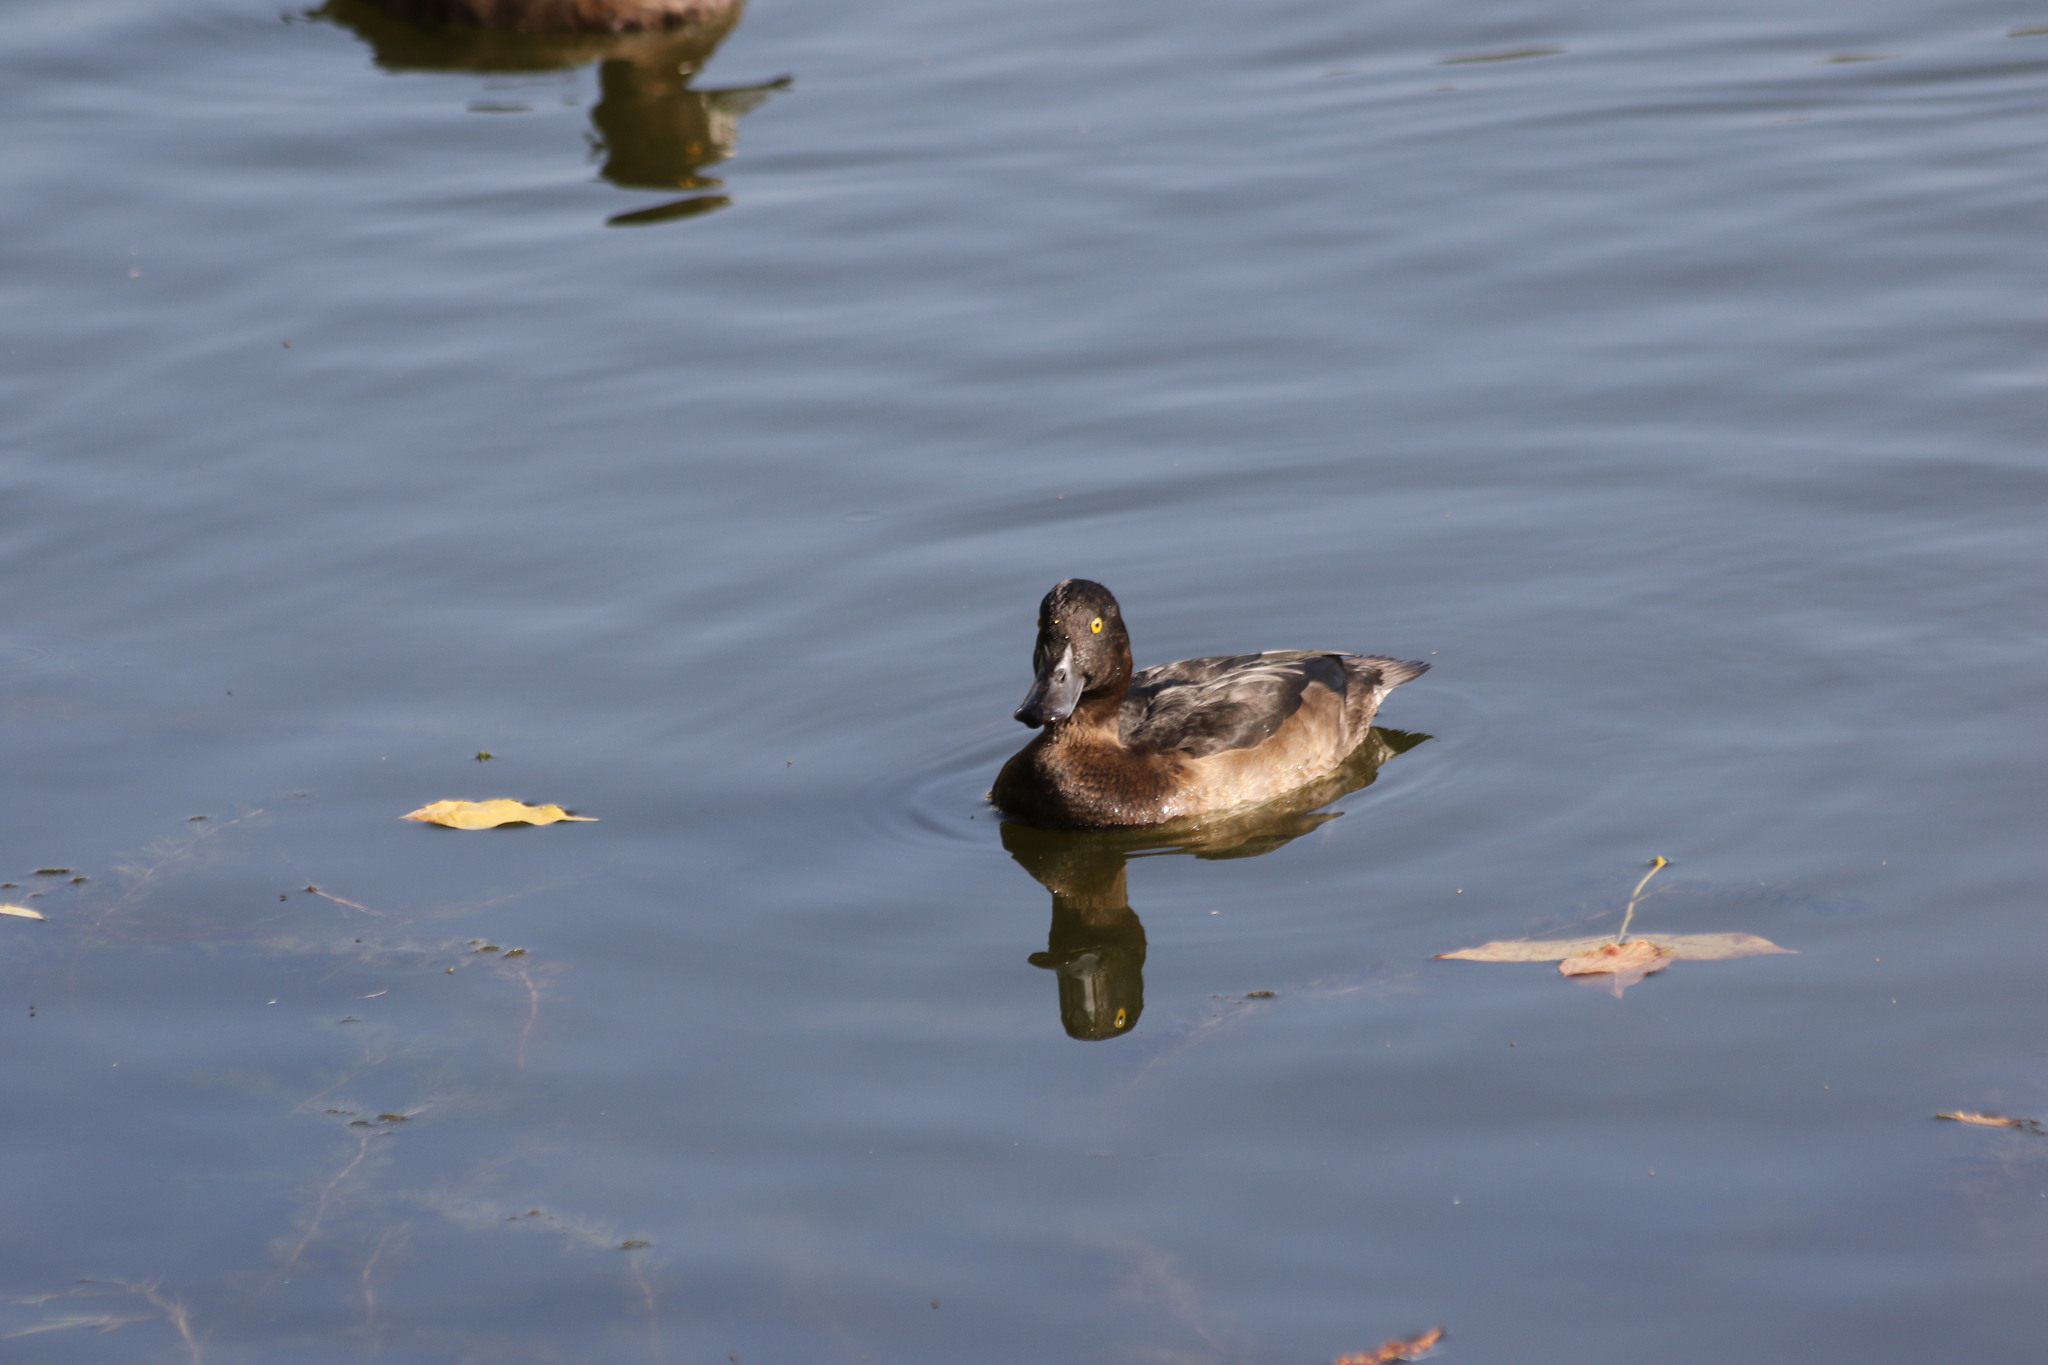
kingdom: Animalia
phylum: Chordata
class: Aves
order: Anseriformes
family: Anatidae
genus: Aythya
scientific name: Aythya fuligula
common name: Tufted duck
